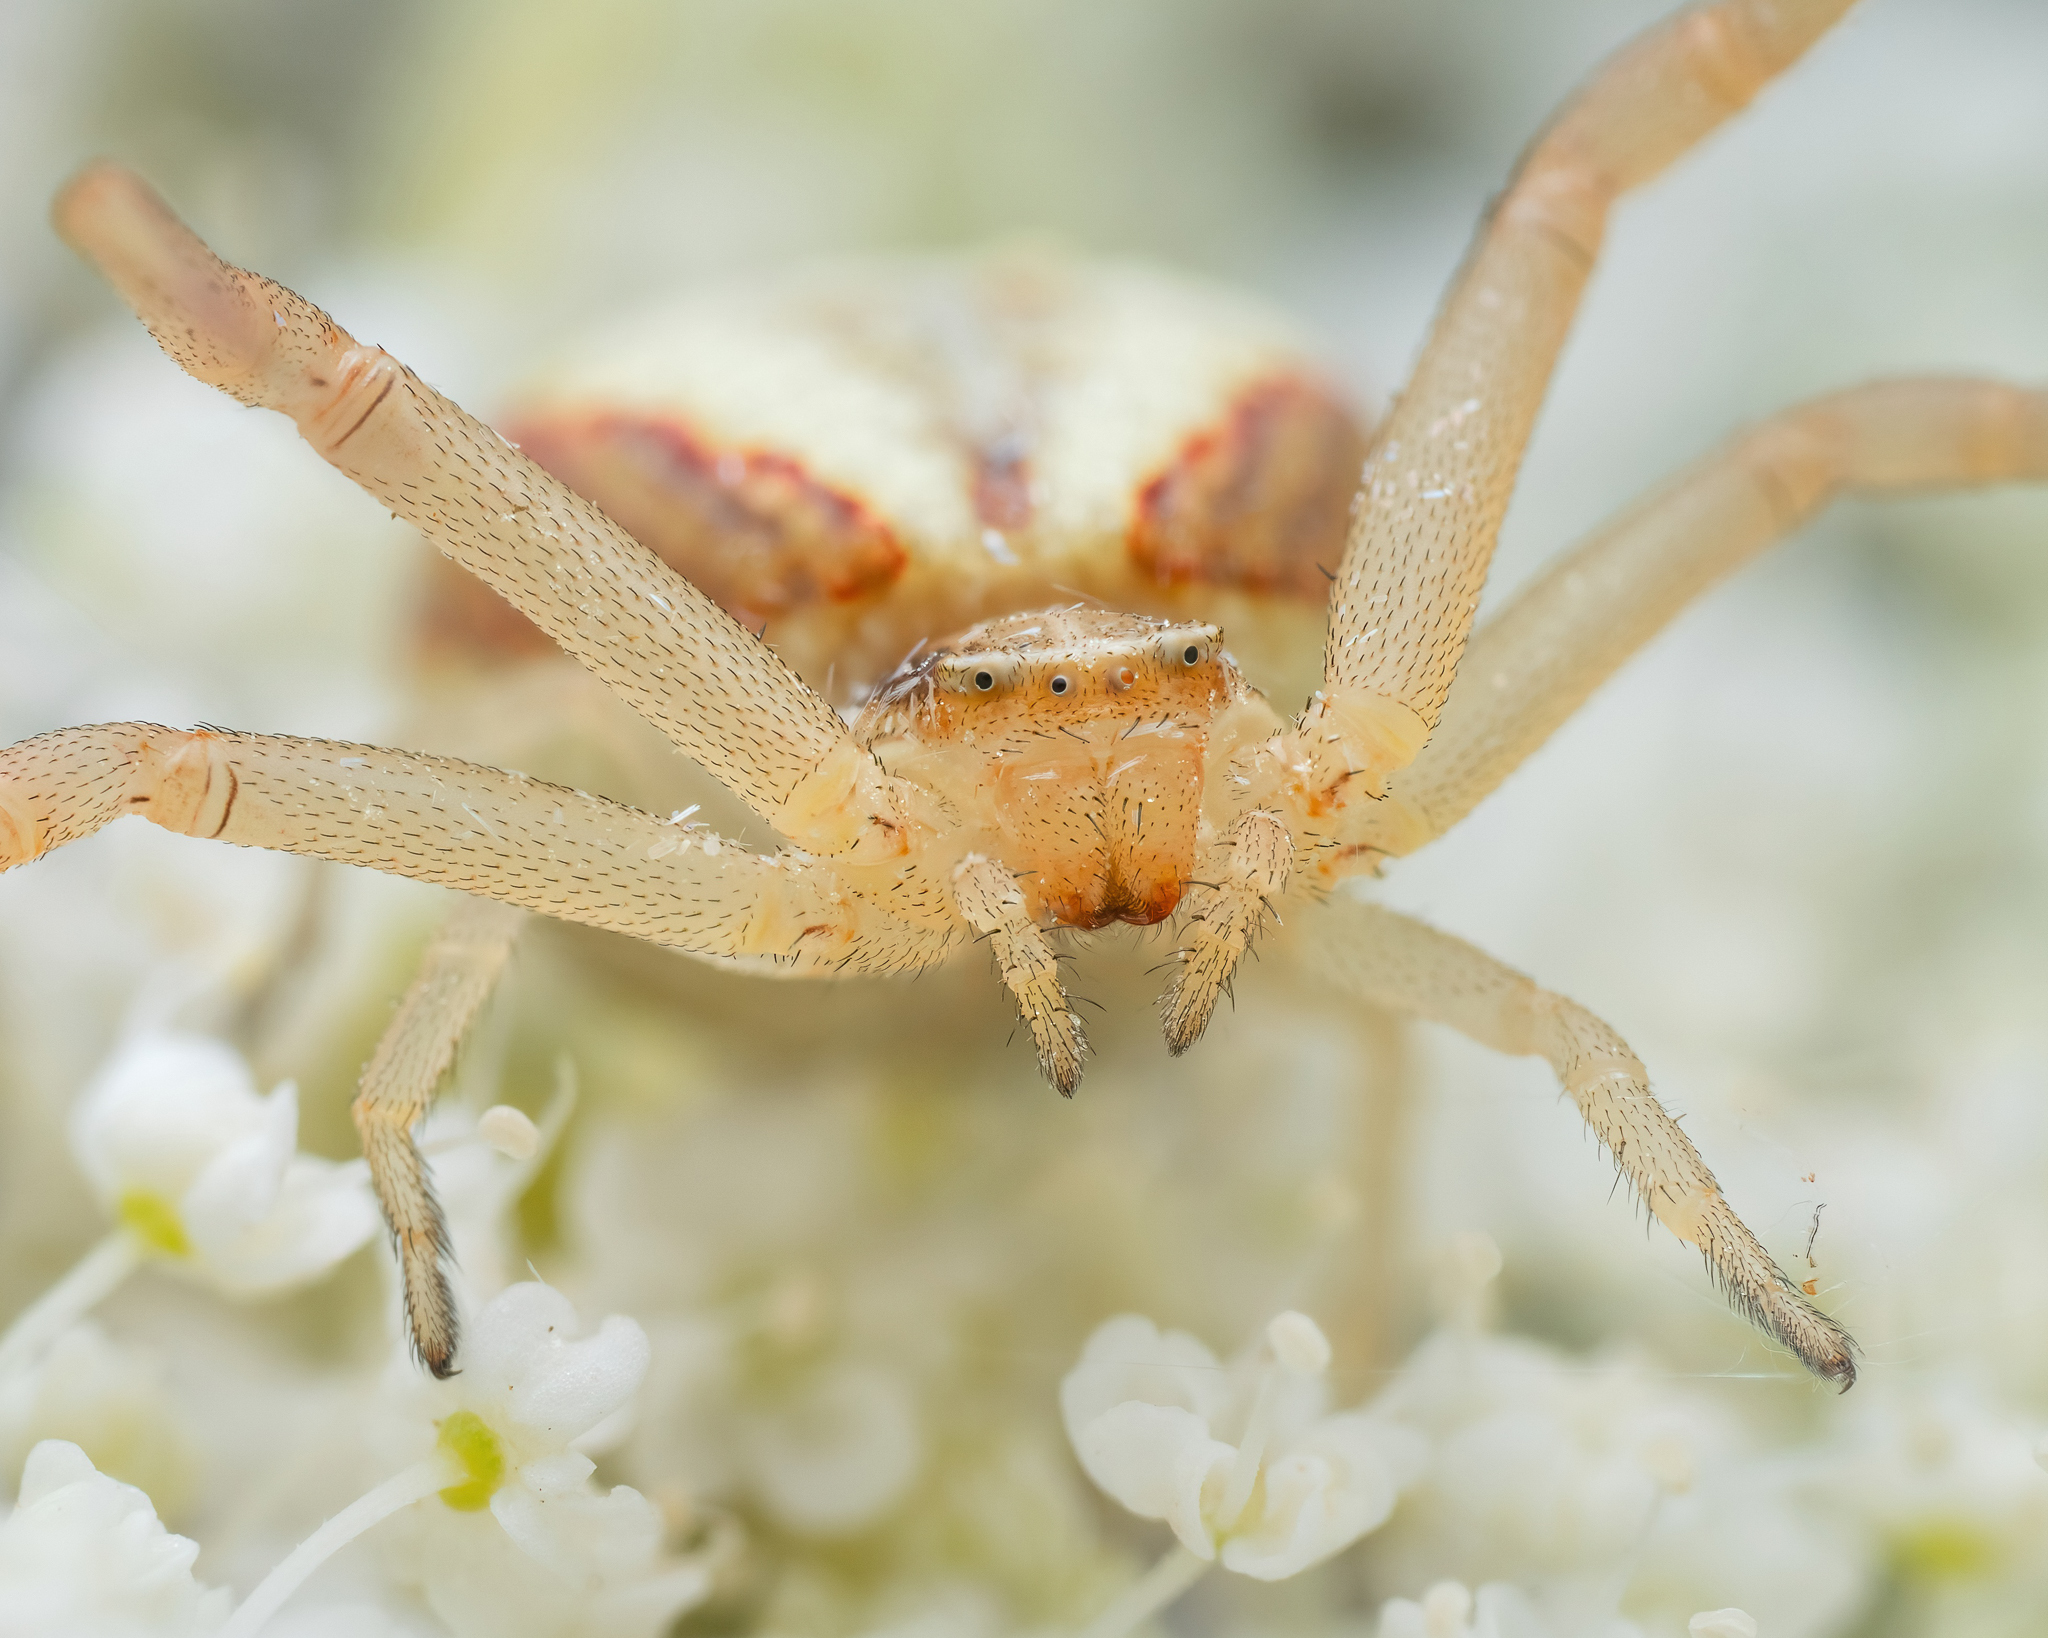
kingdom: Animalia
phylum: Arthropoda
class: Arachnida
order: Araneae
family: Thomisidae
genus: Runcinia
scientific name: Runcinia grammica
